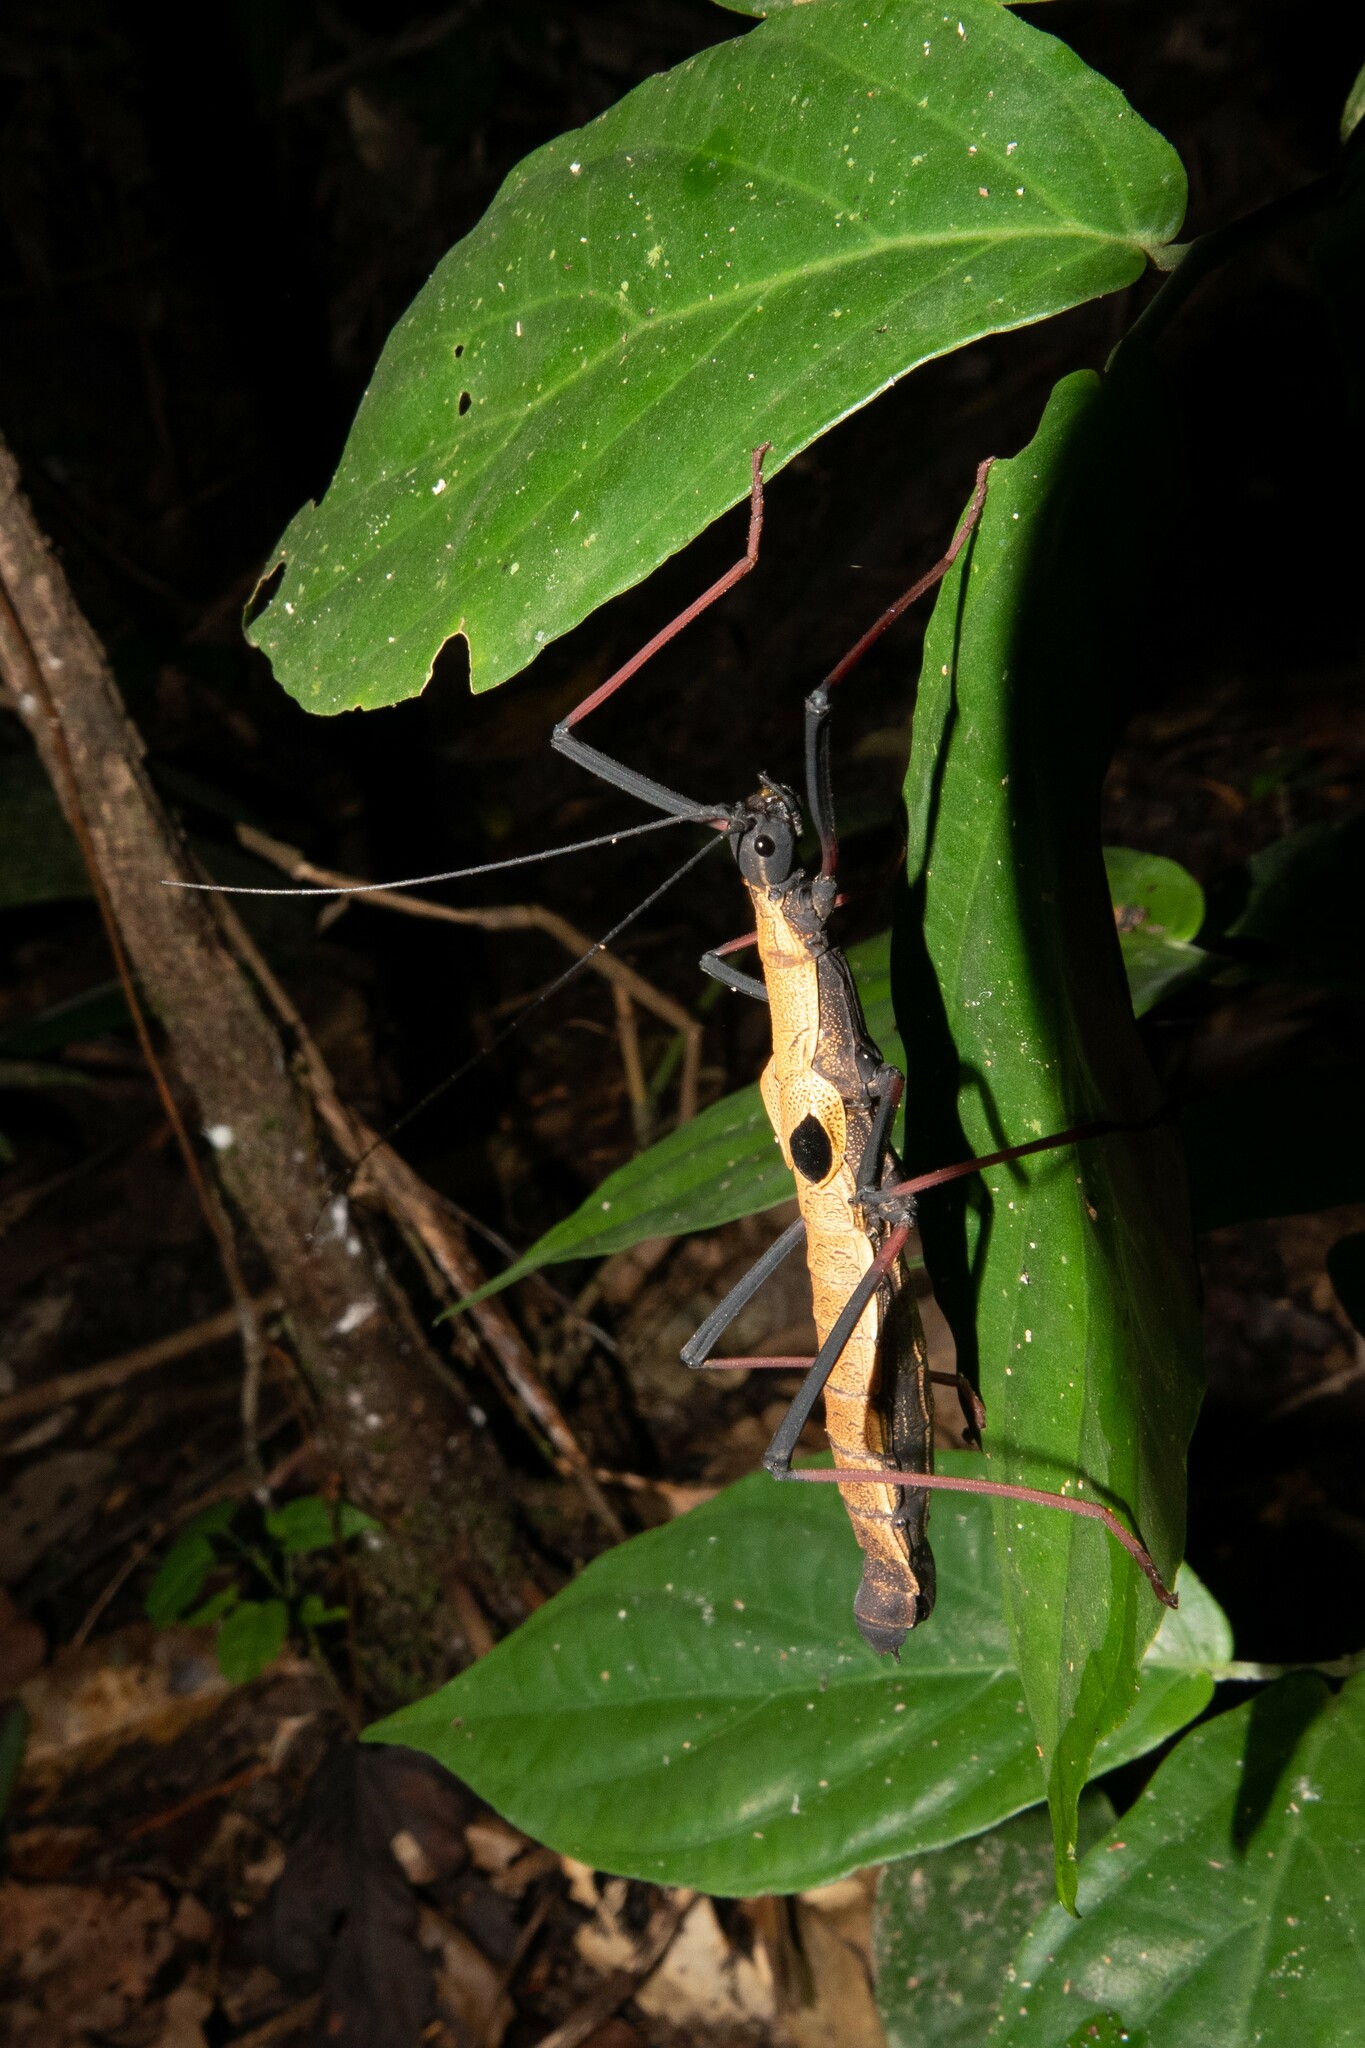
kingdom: Animalia
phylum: Arthropoda
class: Insecta
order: Phasmida
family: Pseudophasmatidae
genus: Pseudophasma
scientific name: Pseudophasma scabriusculum
